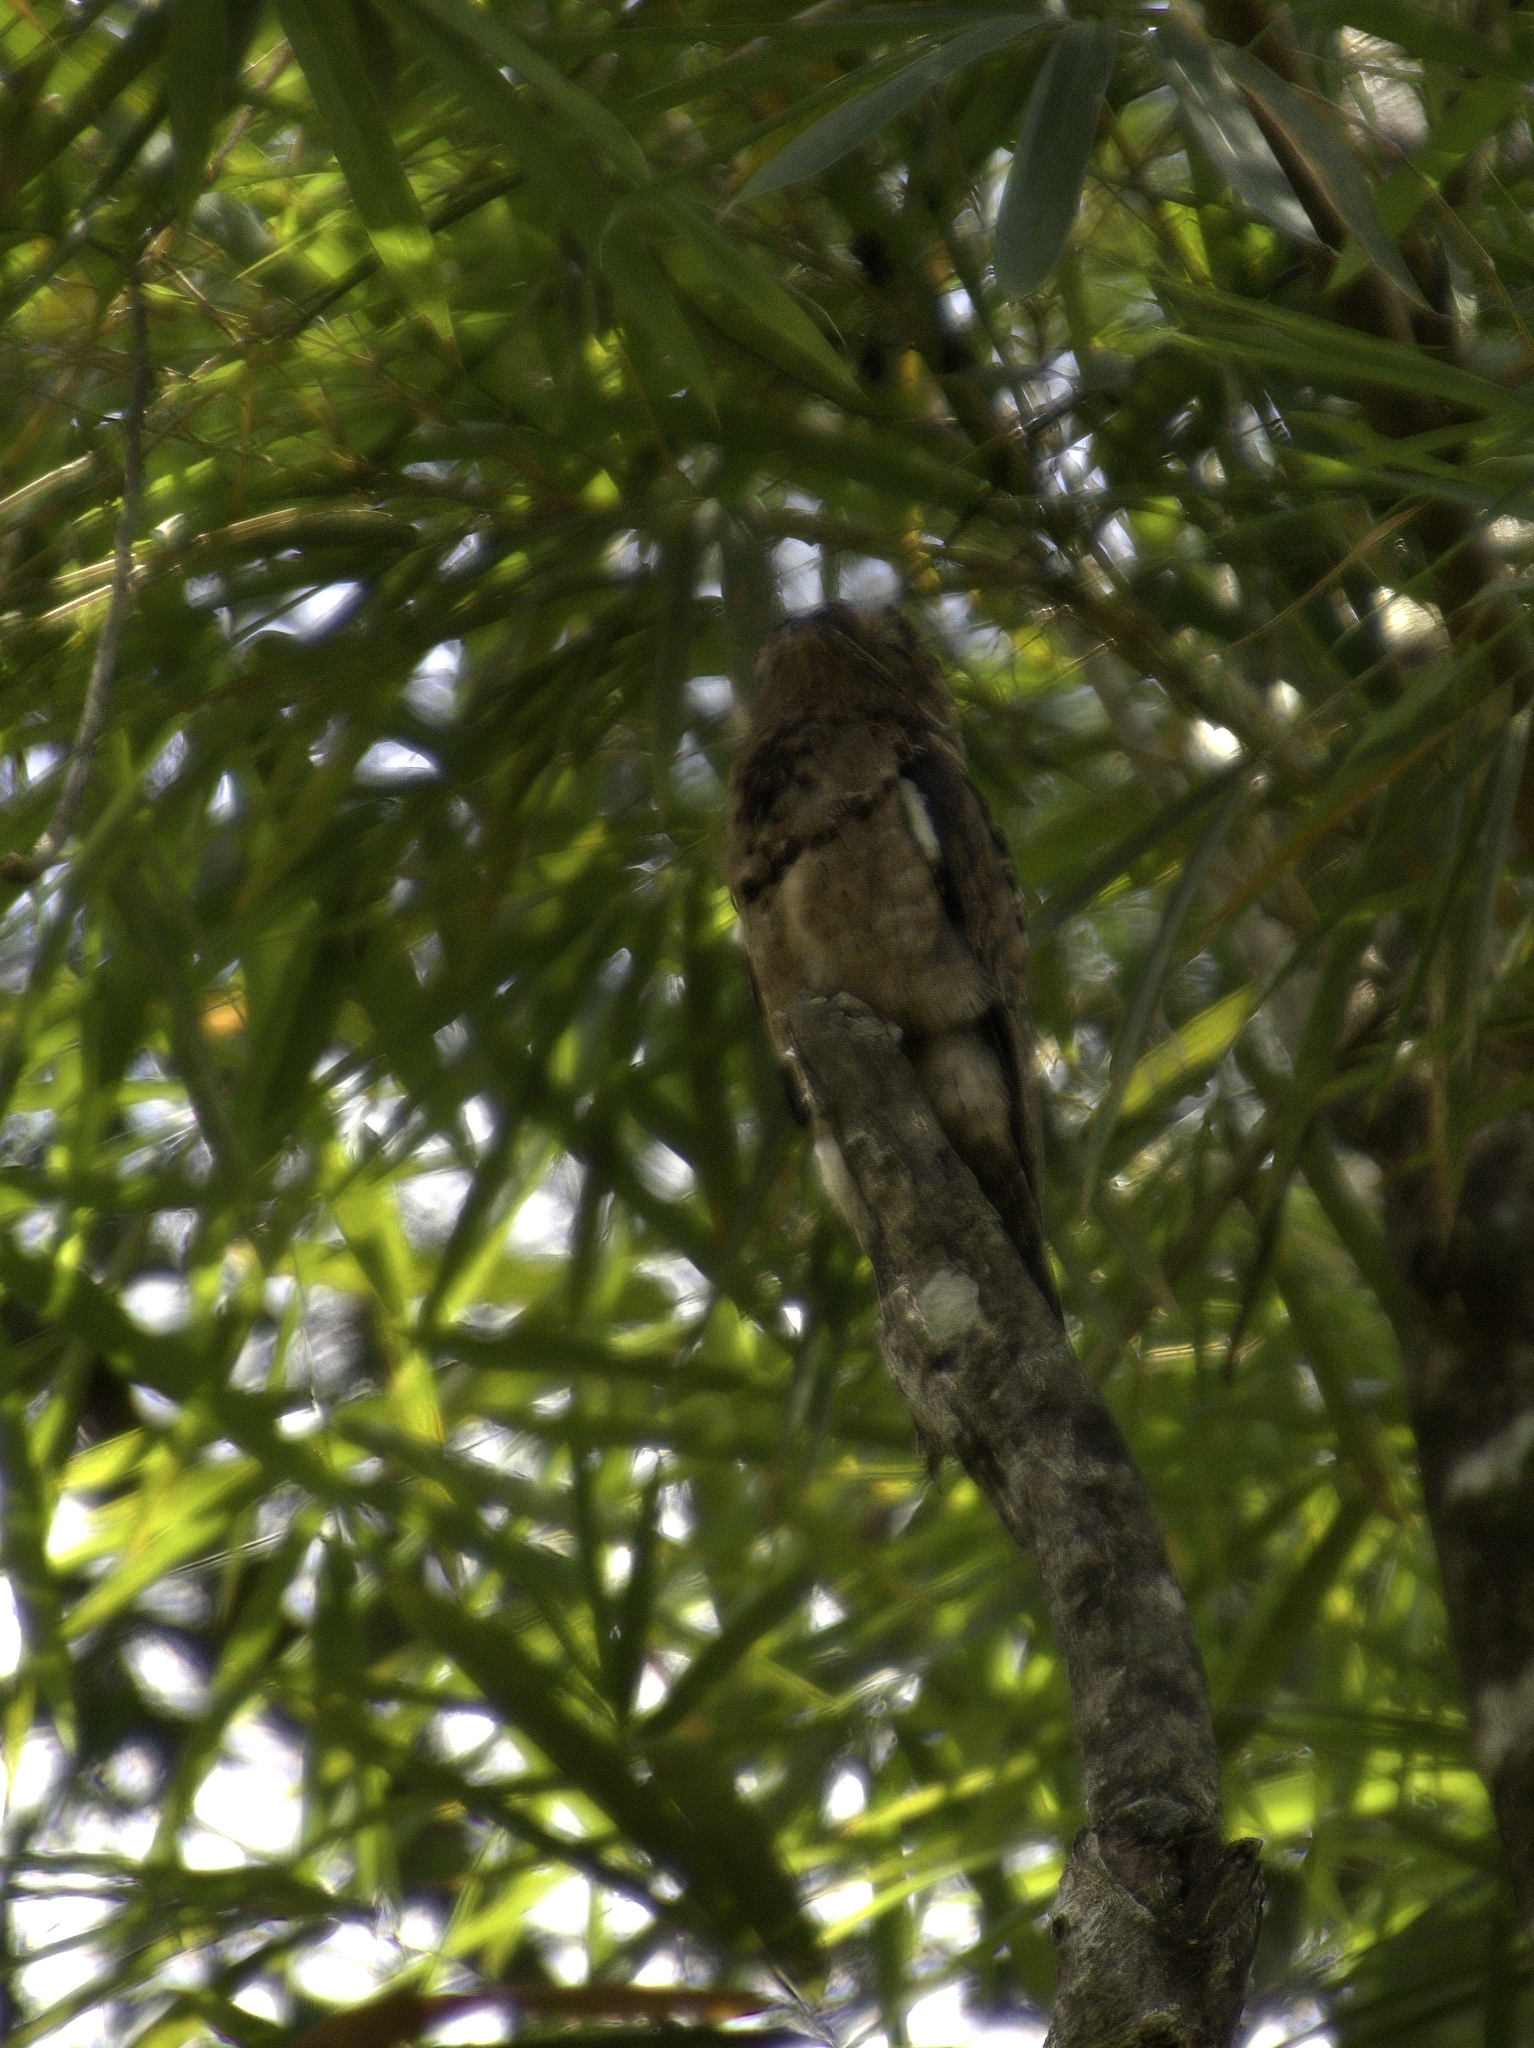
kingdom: Animalia
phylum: Chordata
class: Aves
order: Nyctibiiformes
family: Nyctibiidae
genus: Nyctibius
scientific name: Nyctibius griseus
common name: Common potoo
